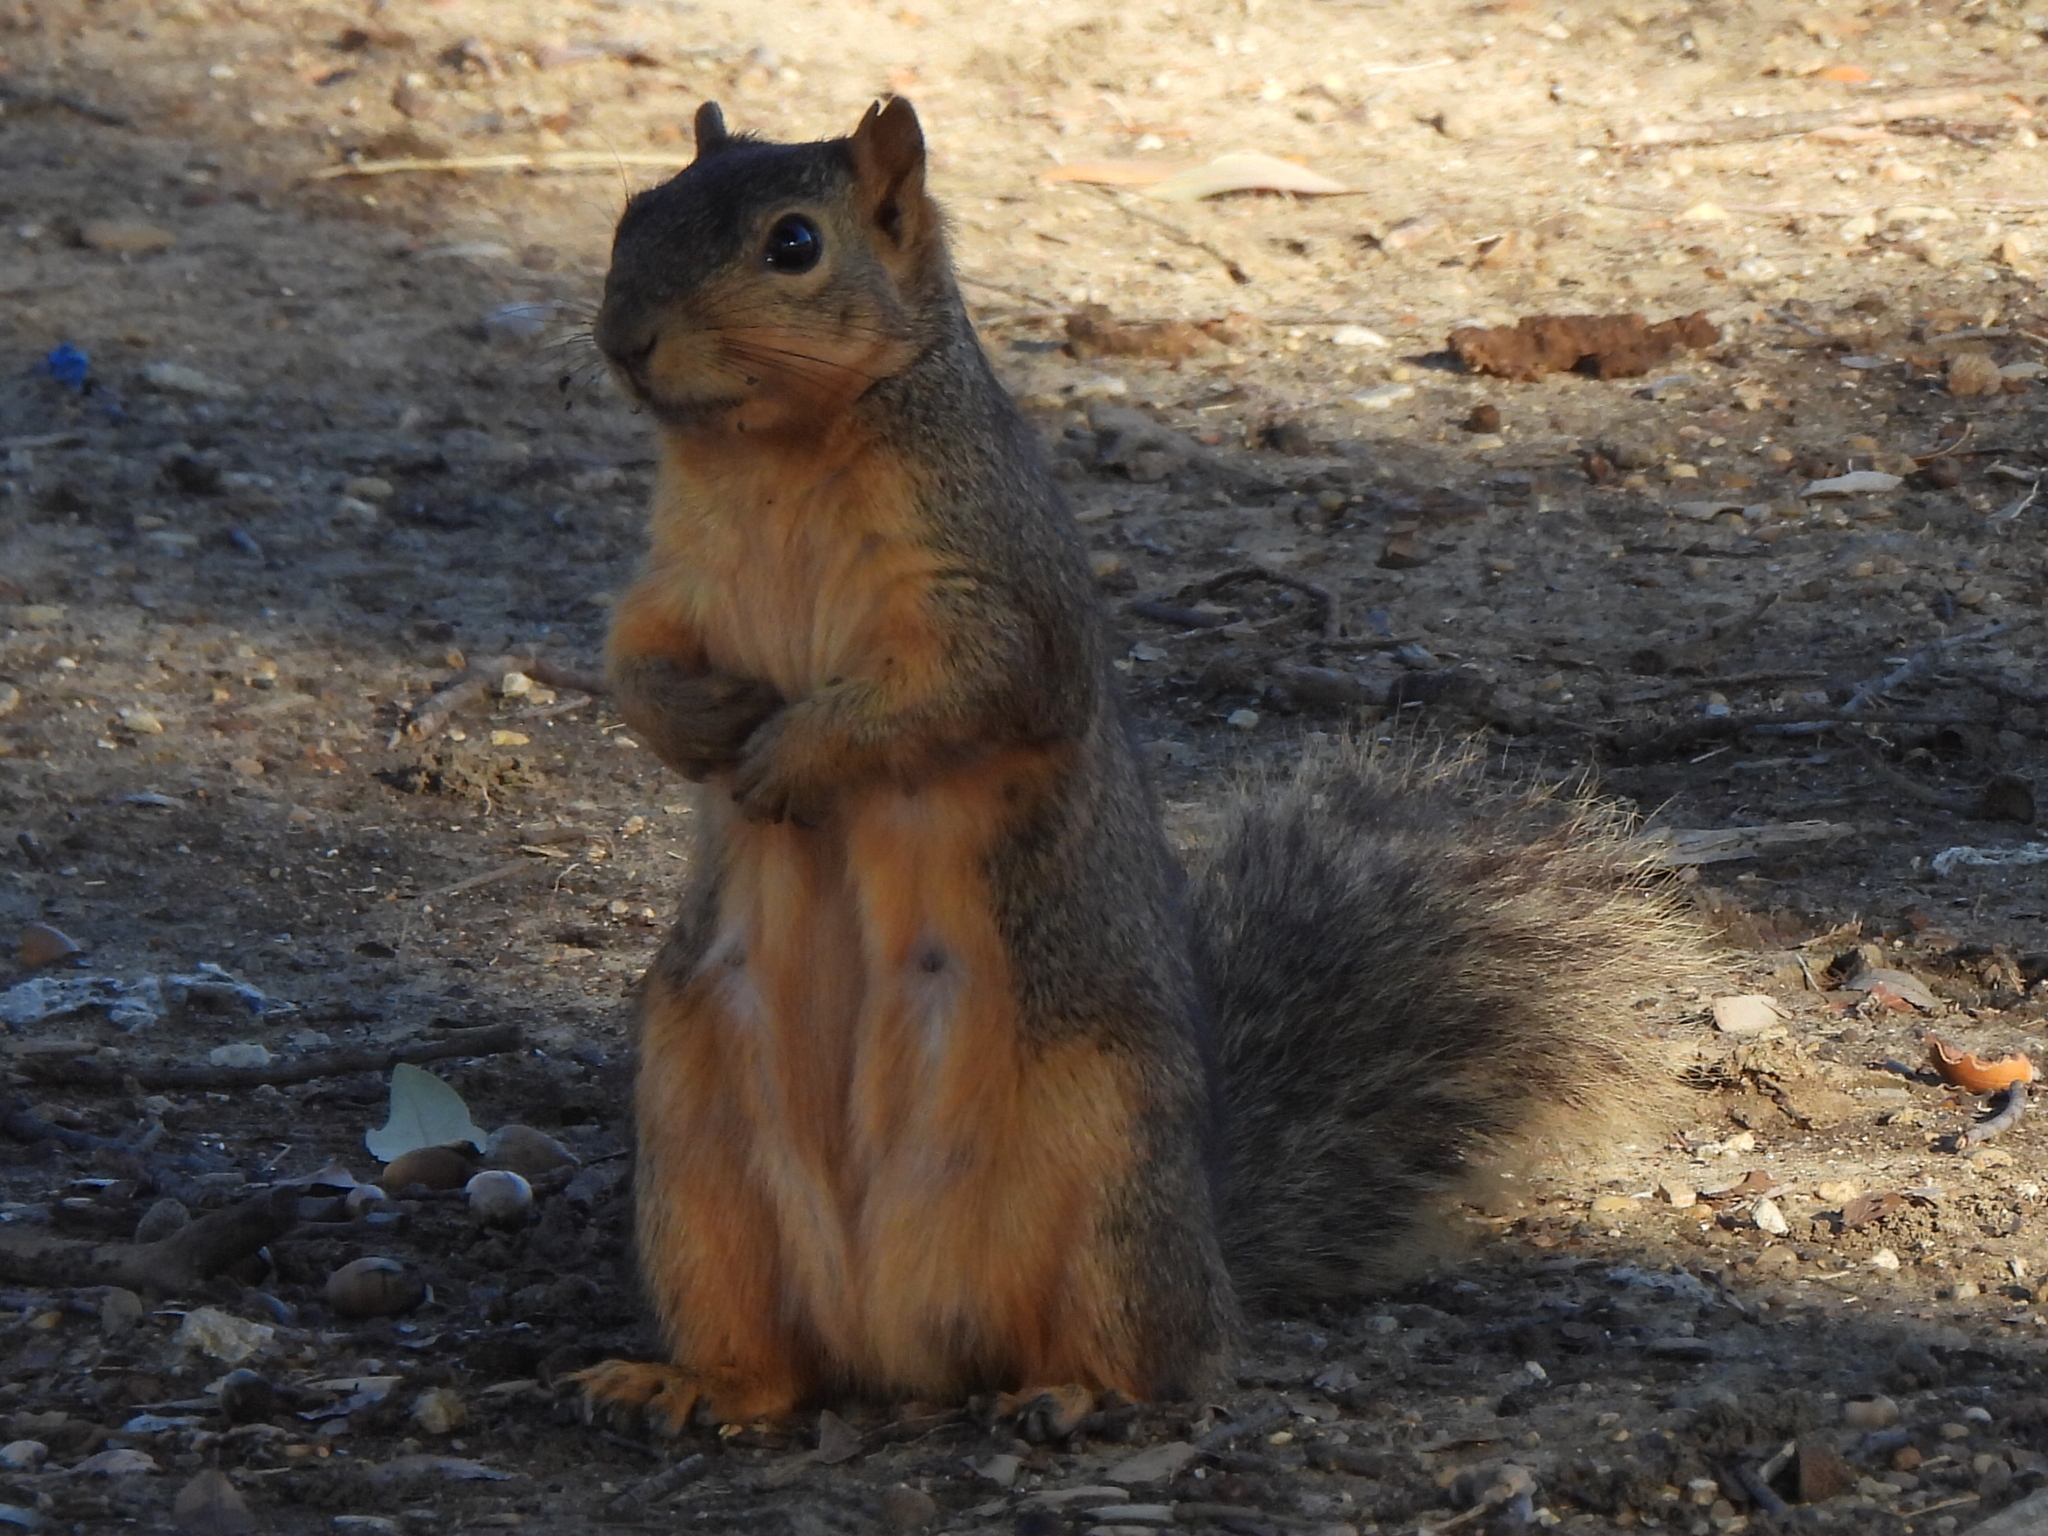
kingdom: Animalia
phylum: Chordata
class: Mammalia
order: Rodentia
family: Sciuridae
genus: Sciurus
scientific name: Sciurus niger
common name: Fox squirrel
